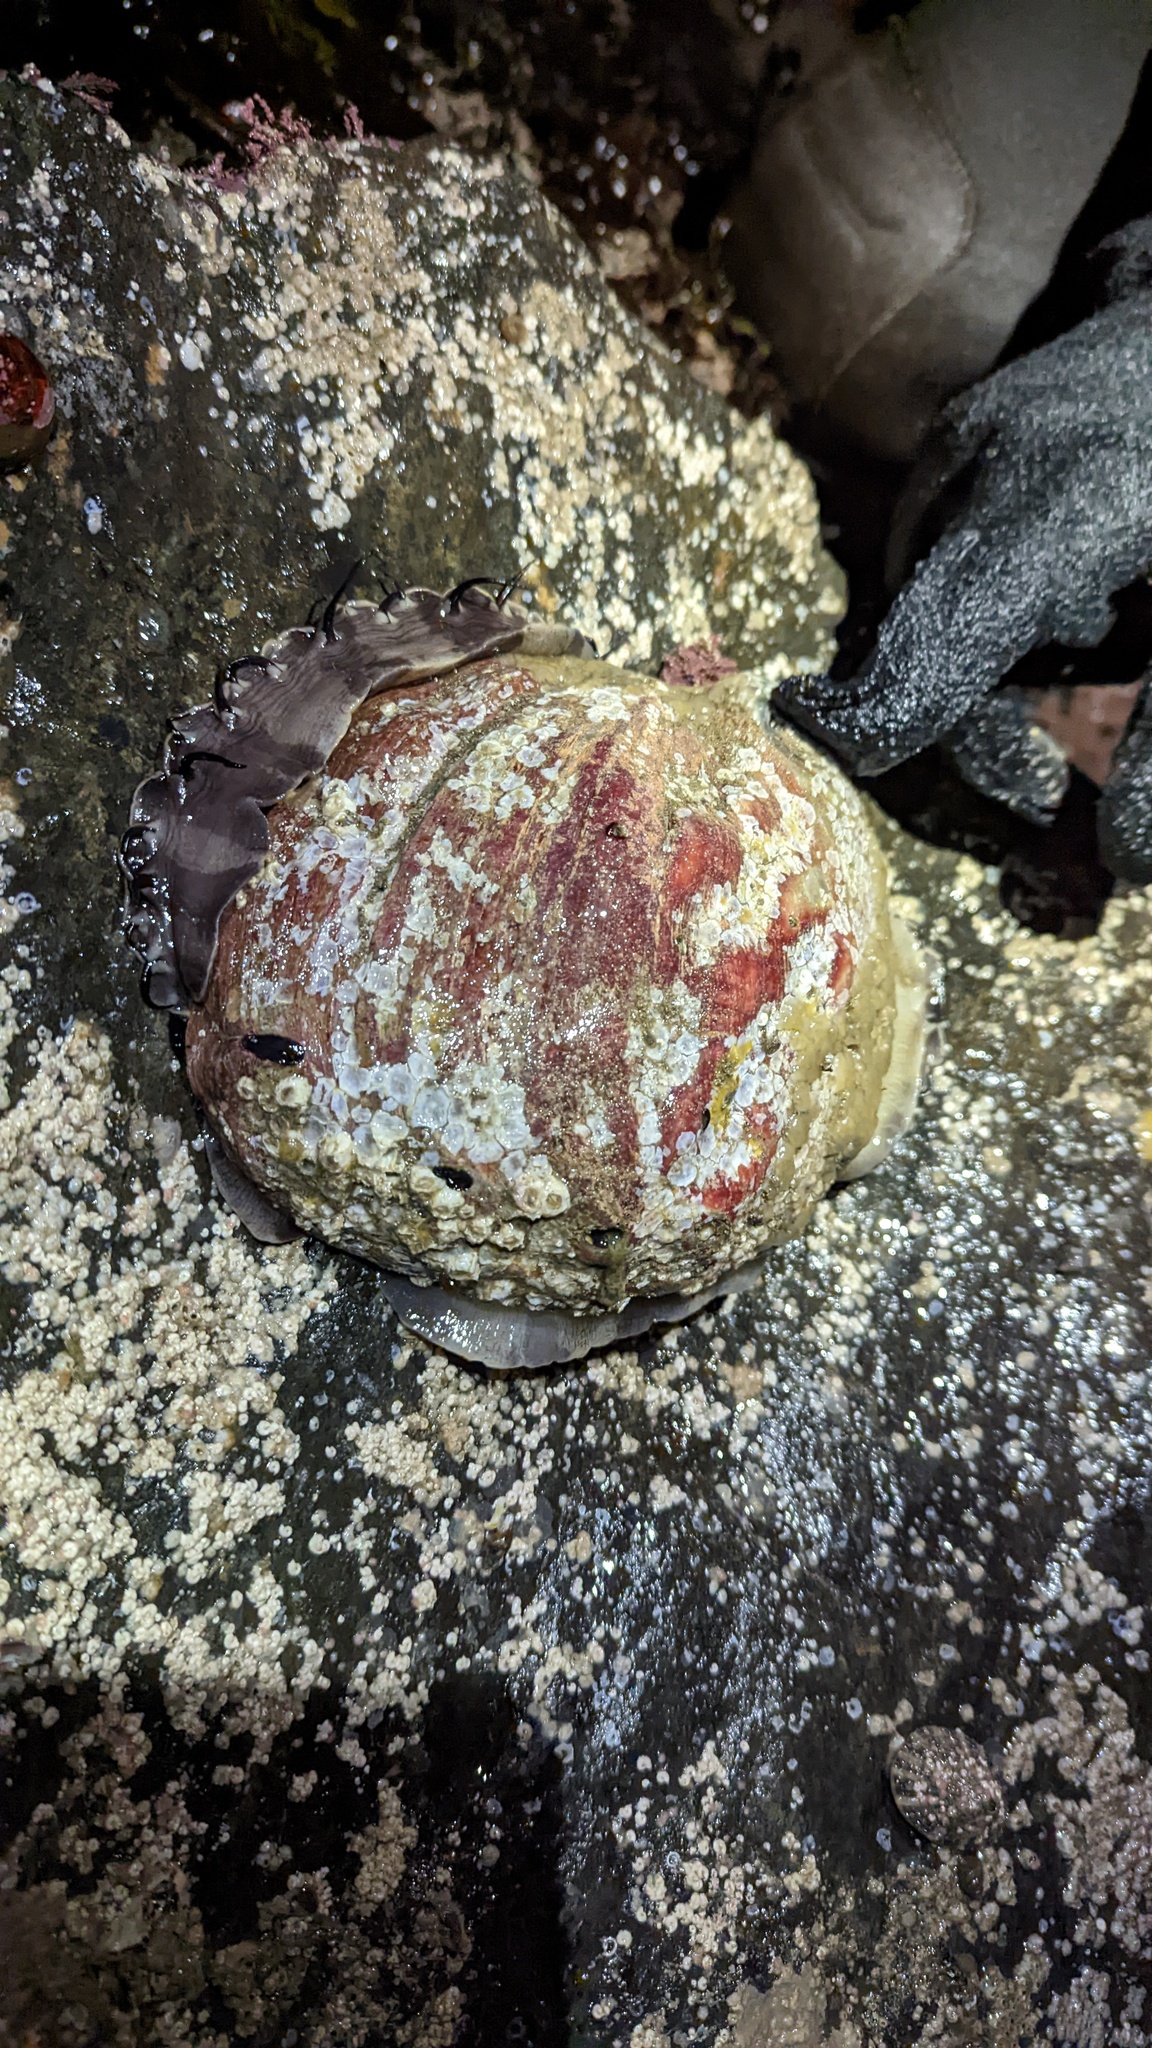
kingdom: Animalia
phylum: Mollusca
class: Gastropoda
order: Lepetellida
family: Haliotidae
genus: Haliotis
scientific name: Haliotis rufescens
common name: Red abalone
